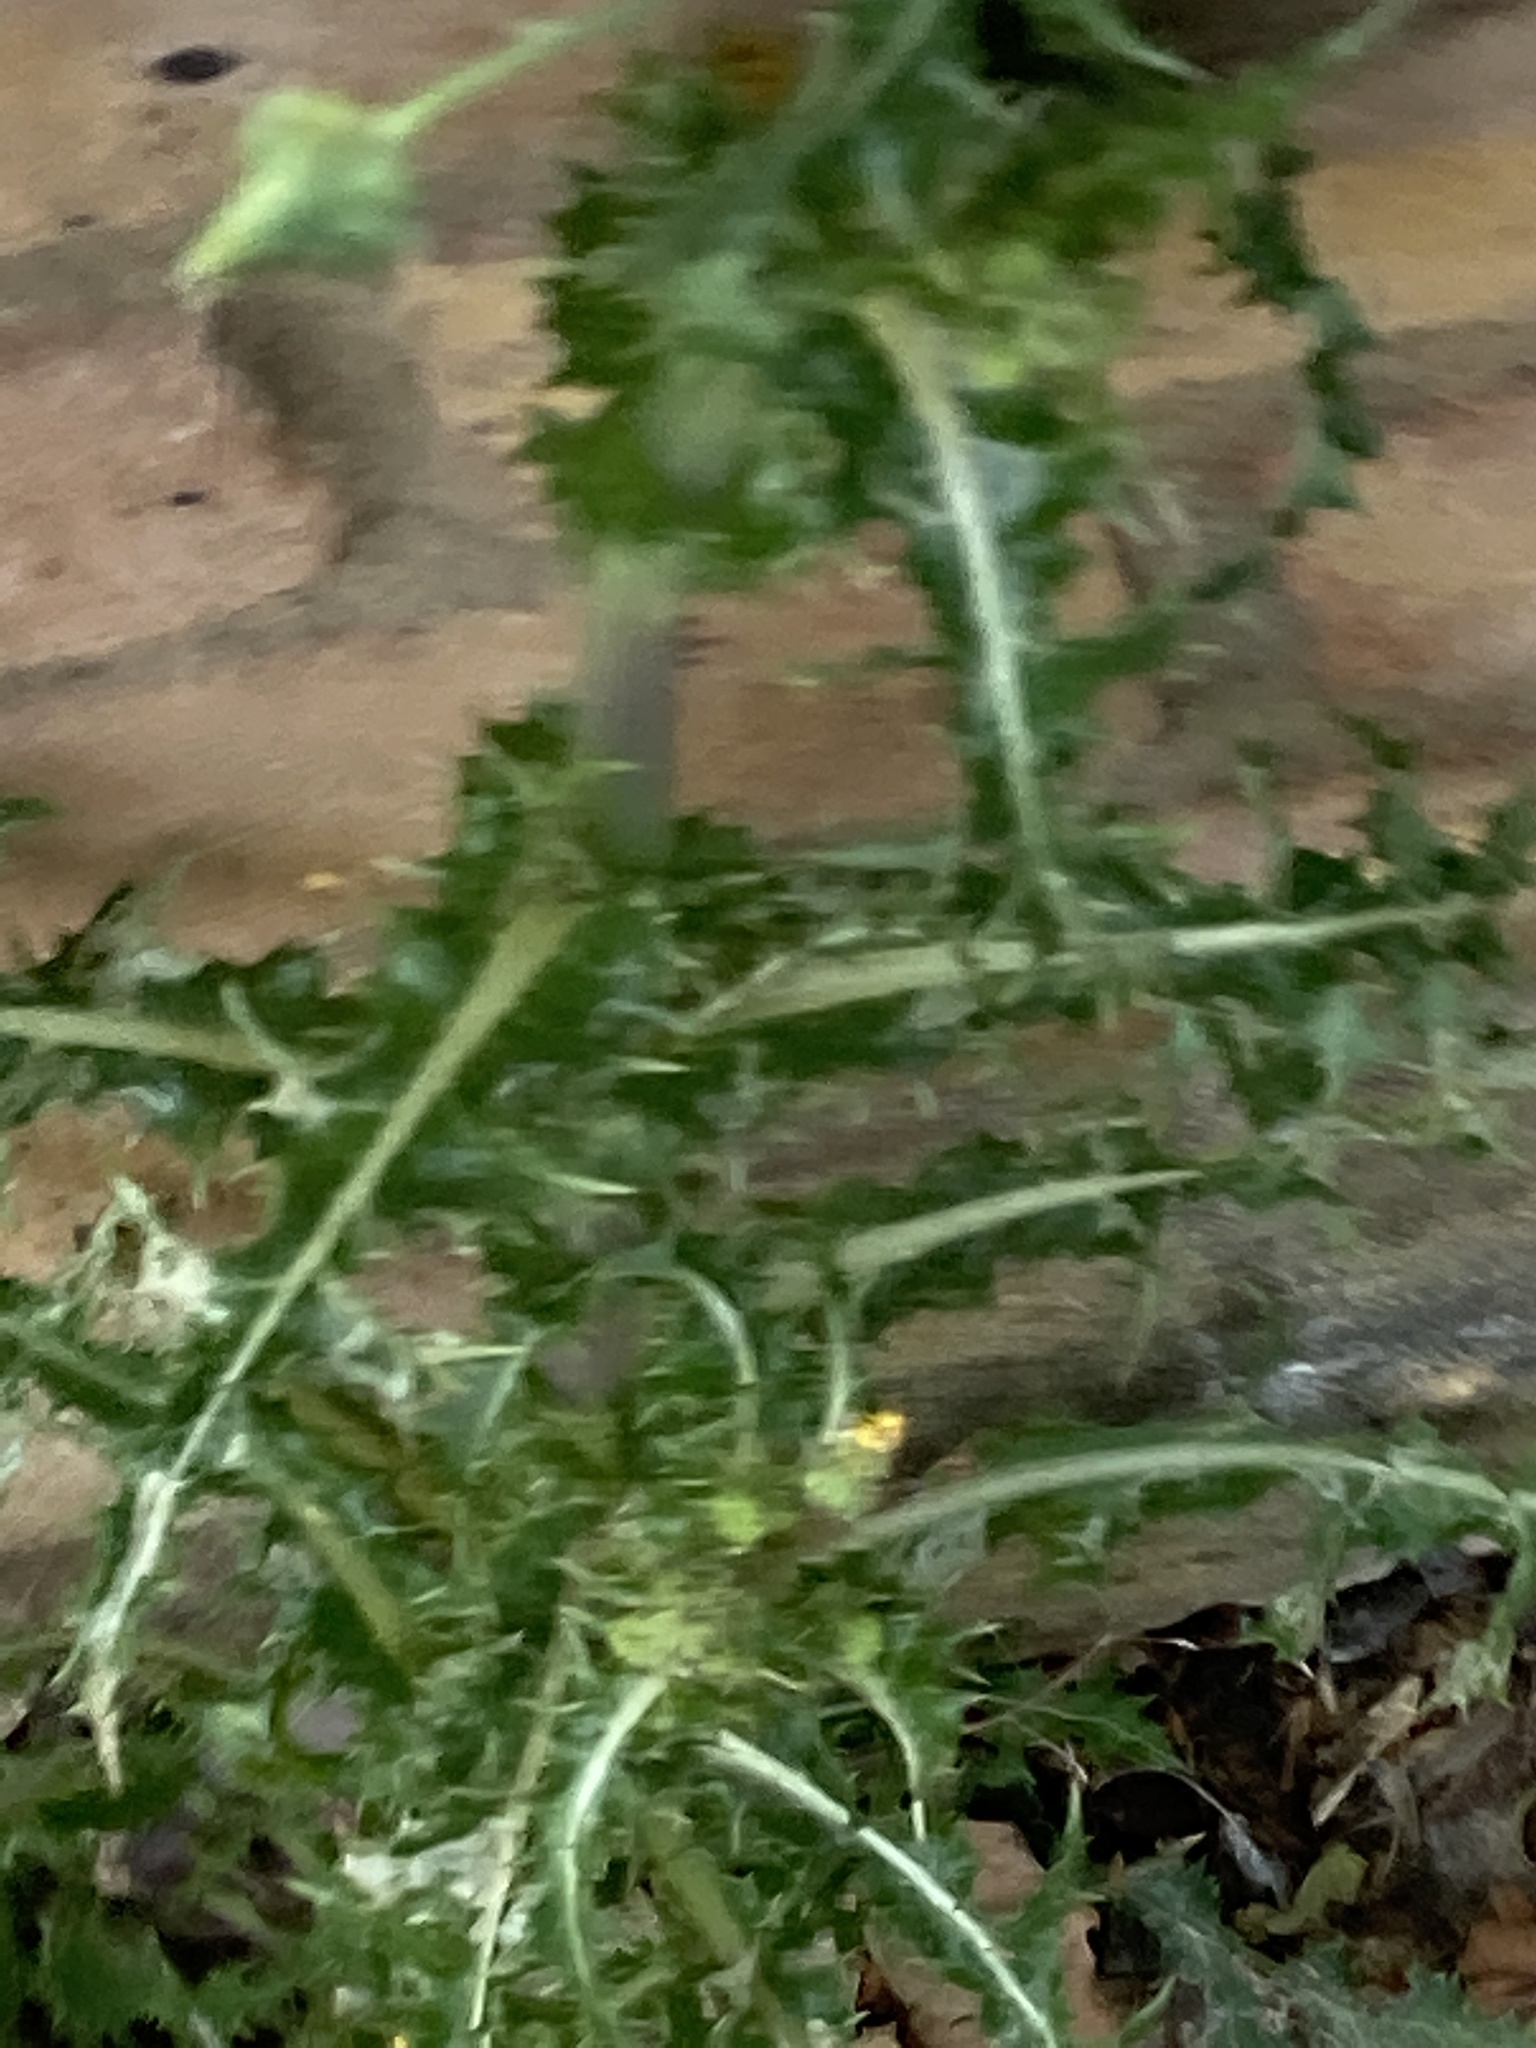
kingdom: Plantae
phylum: Tracheophyta
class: Magnoliopsida
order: Asterales
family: Asteraceae
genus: Sonchus
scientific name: Sonchus asper
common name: Prickly sow-thistle
